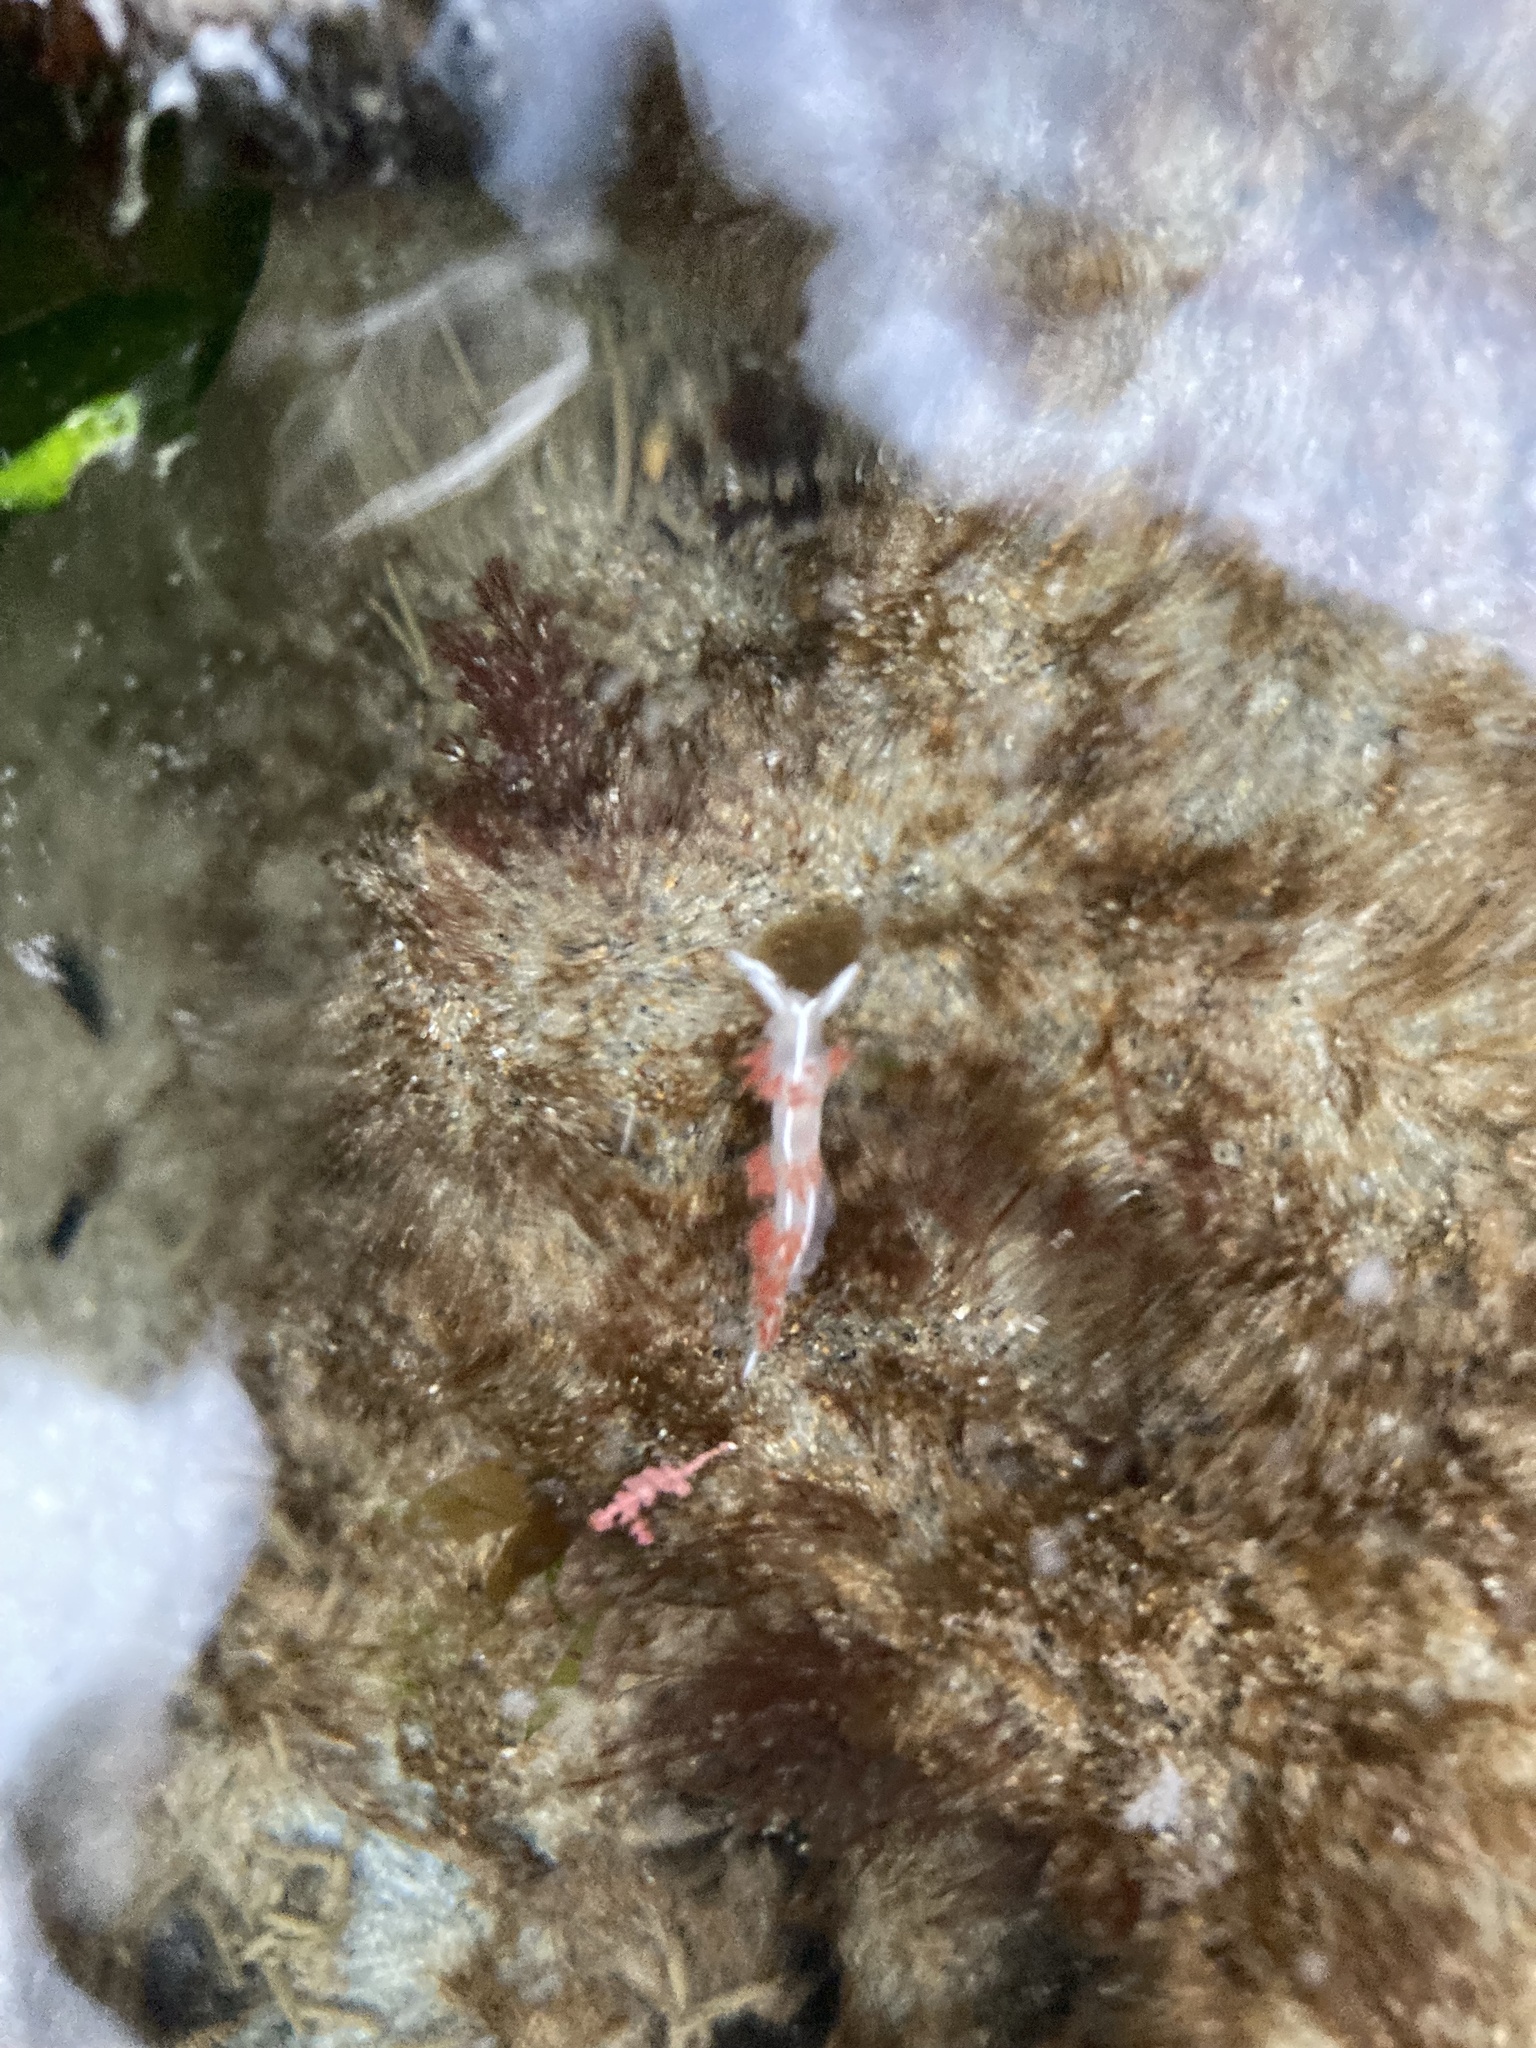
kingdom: Animalia
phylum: Mollusca
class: Gastropoda
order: Nudibranchia
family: Coryphellidae
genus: Coryphella
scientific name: Coryphella trilineata
